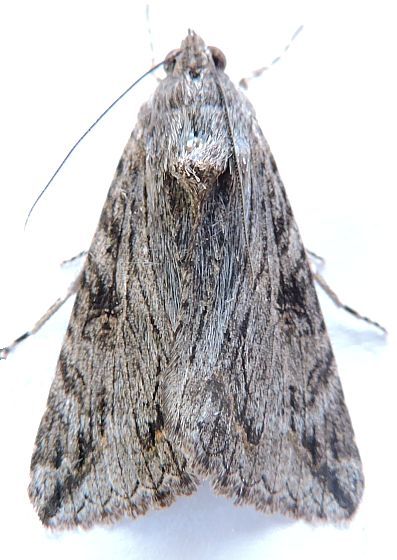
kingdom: Animalia
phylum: Arthropoda
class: Insecta
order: Lepidoptera
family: Erebidae
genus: Melipotis
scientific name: Melipotis jucunda
